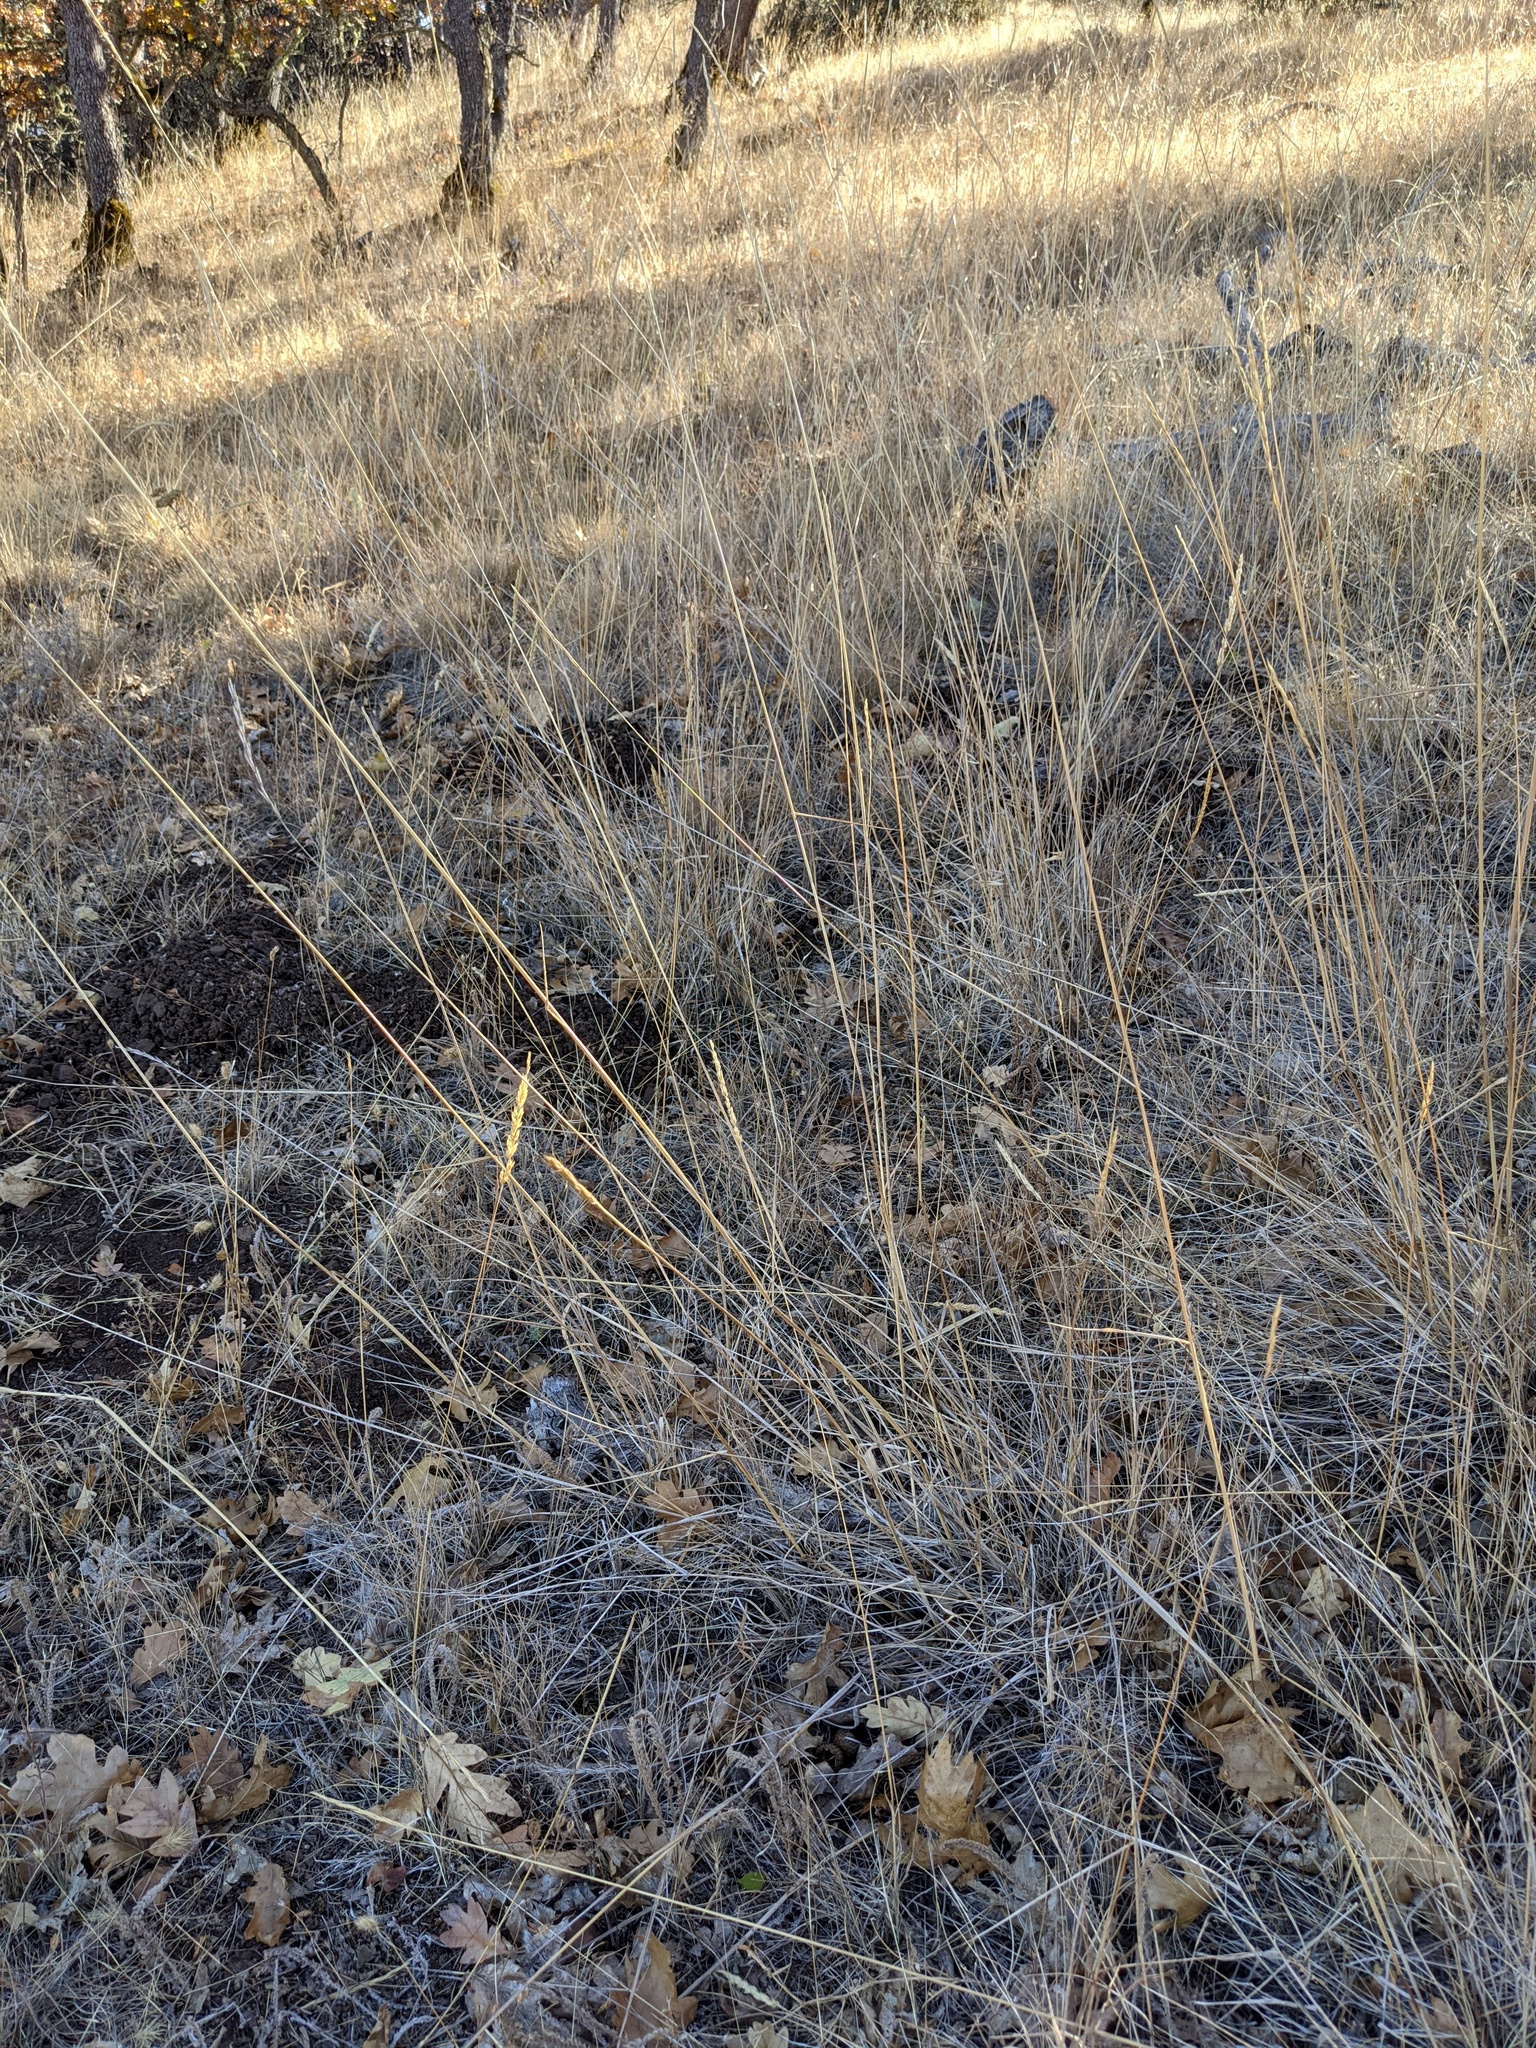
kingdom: Plantae
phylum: Tracheophyta
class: Liliopsida
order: Poales
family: Poaceae
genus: Elymus
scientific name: Elymus glaucus
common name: Blue wild rye
